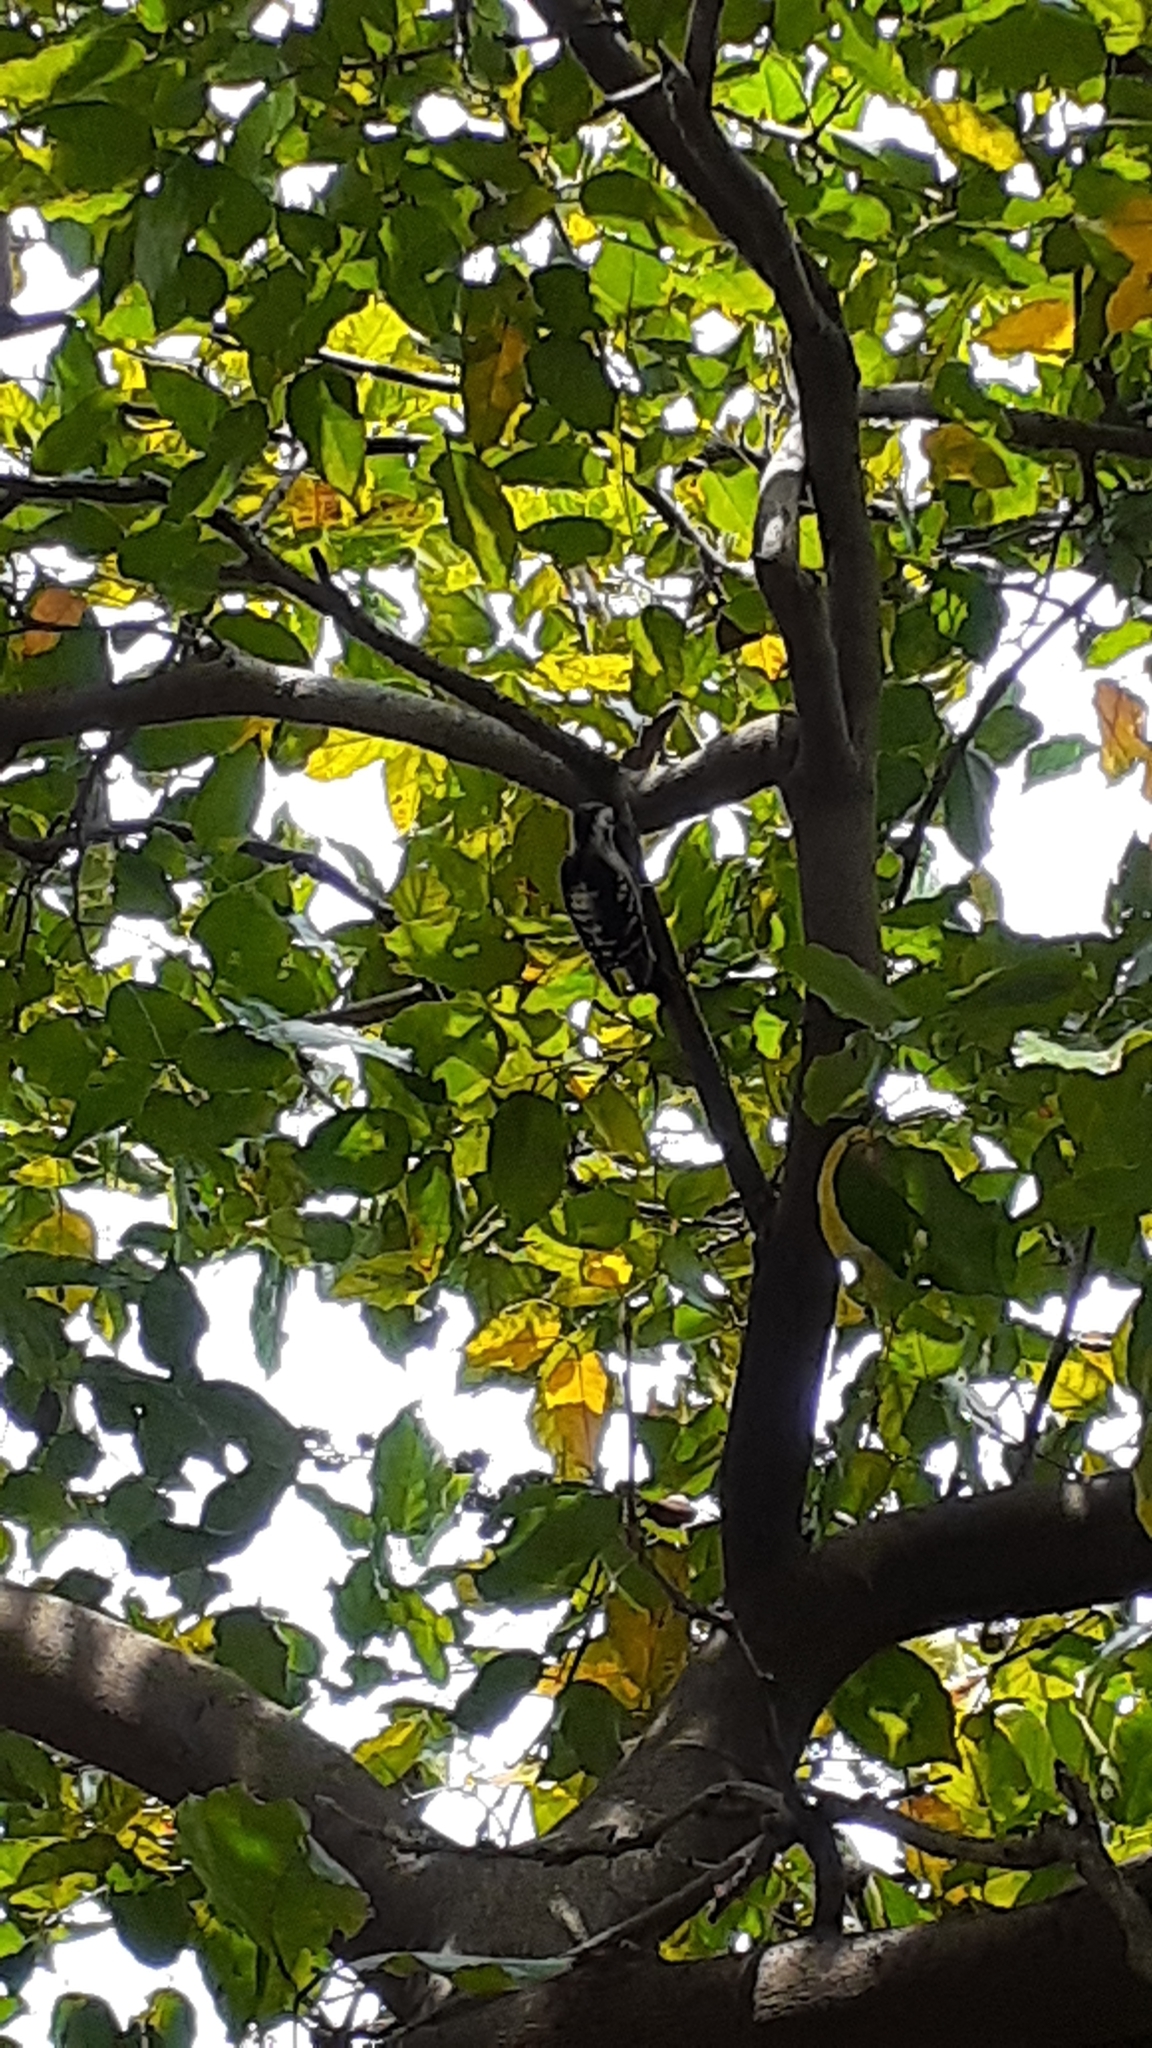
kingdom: Animalia
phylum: Chordata
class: Aves
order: Piciformes
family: Picidae
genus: Yungipicus
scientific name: Yungipicus canicapillus
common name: Grey-capped pygmy woodpecker
